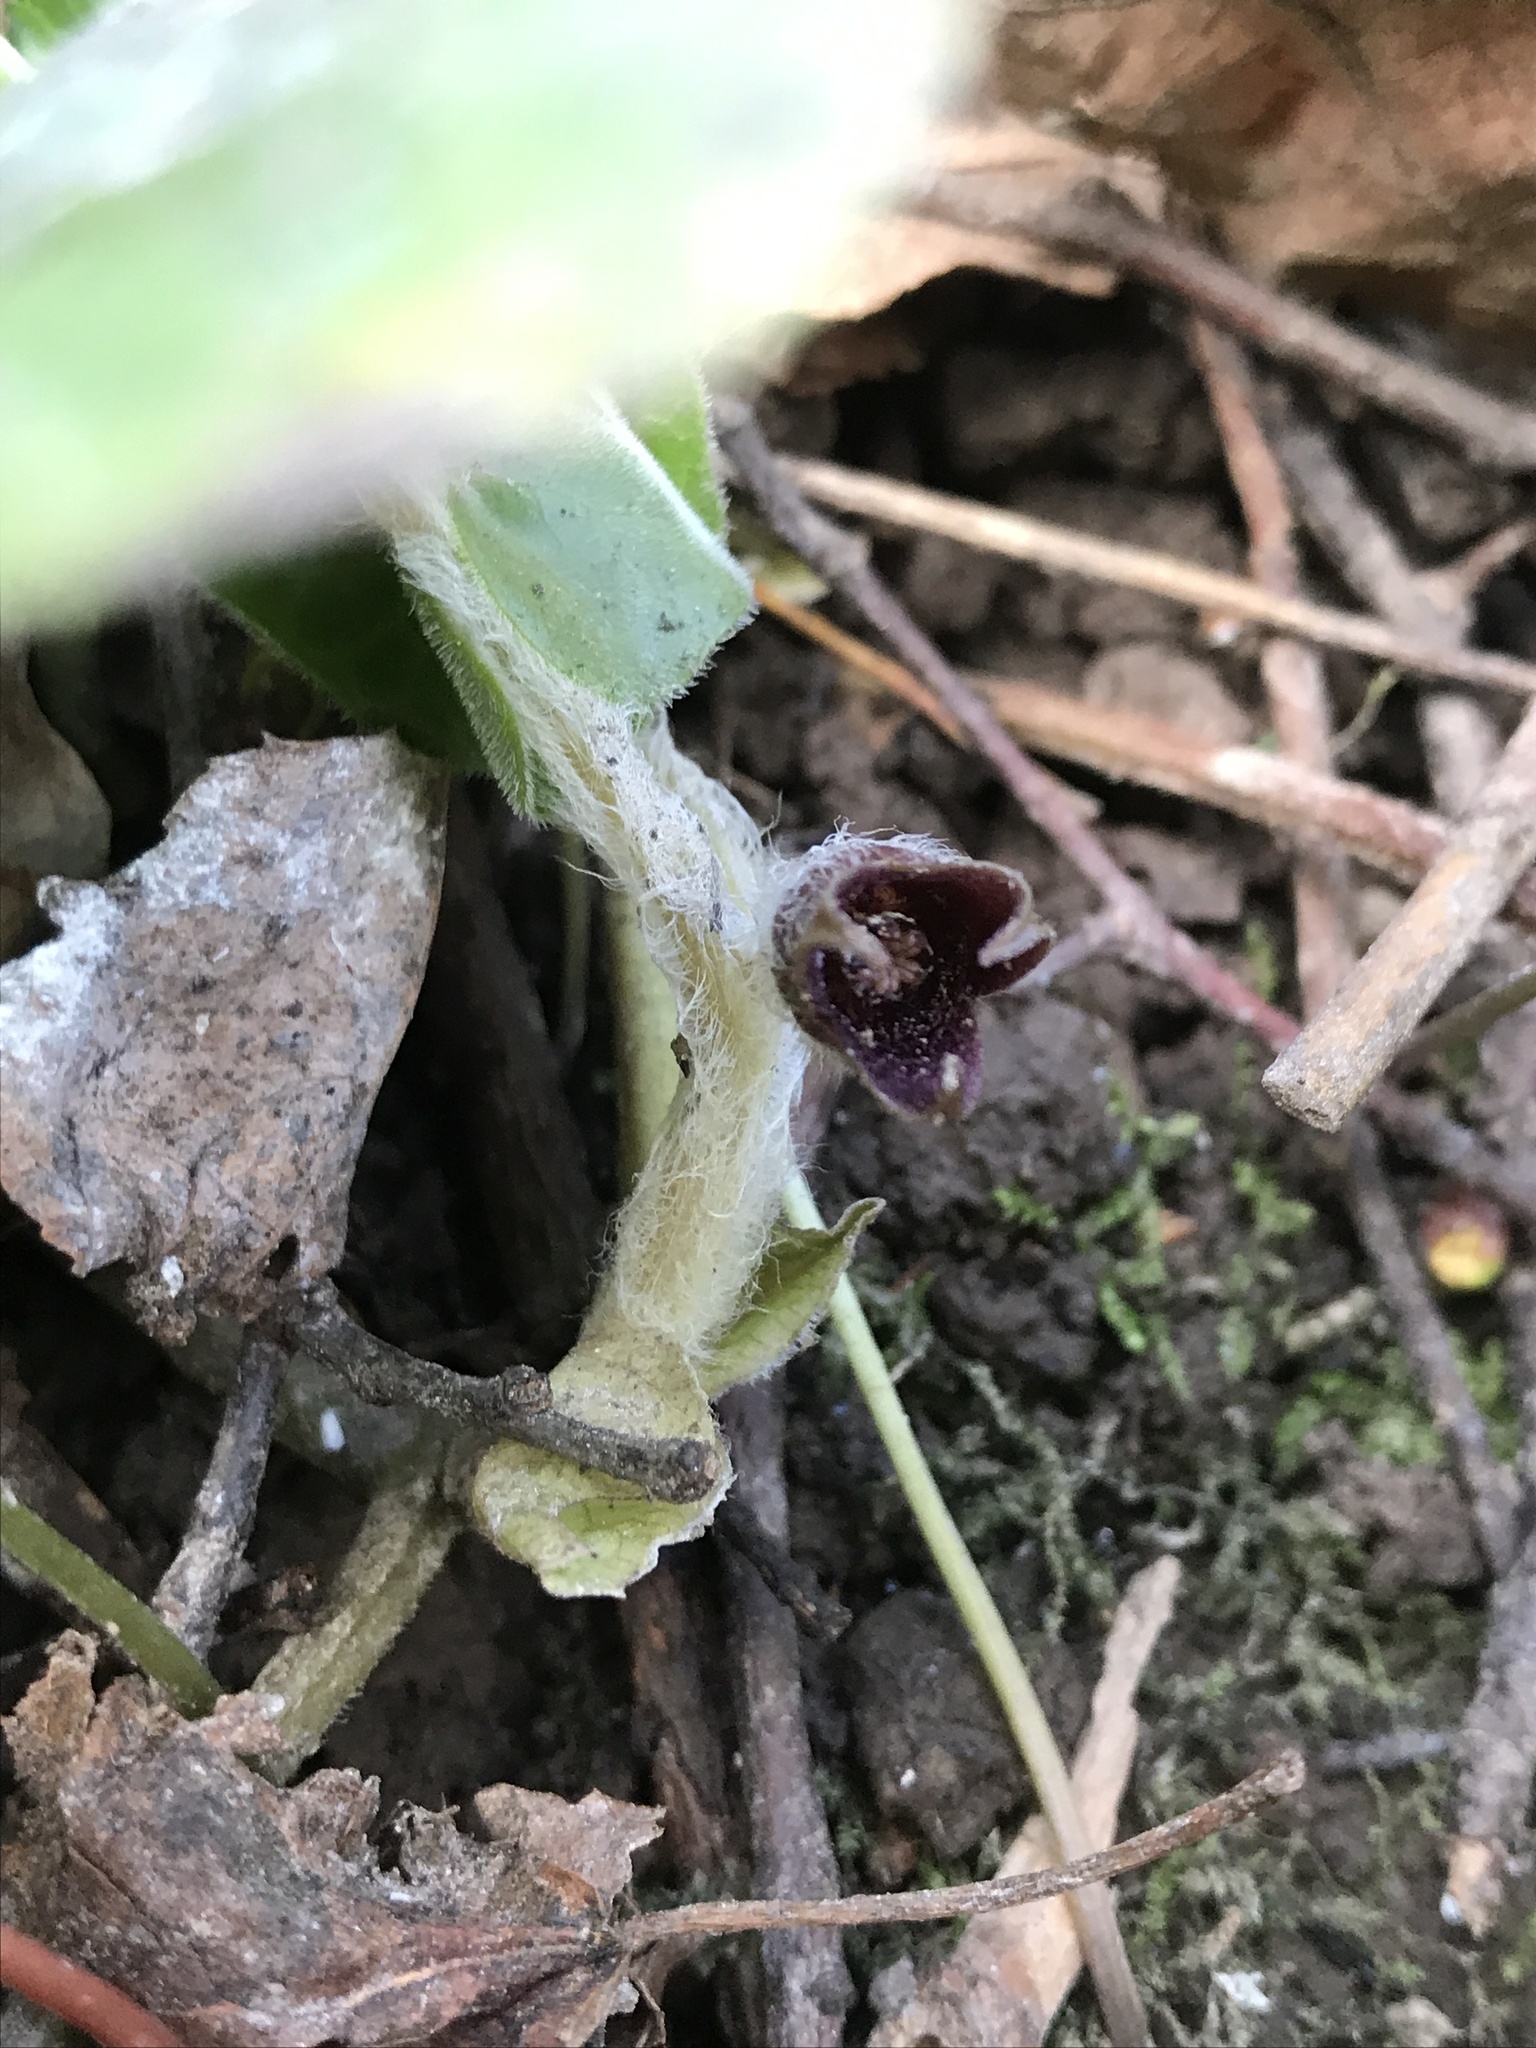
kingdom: Plantae
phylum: Tracheophyta
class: Magnoliopsida
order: Piperales
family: Aristolochiaceae
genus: Asarum
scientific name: Asarum europaeum
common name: Asarabacca
